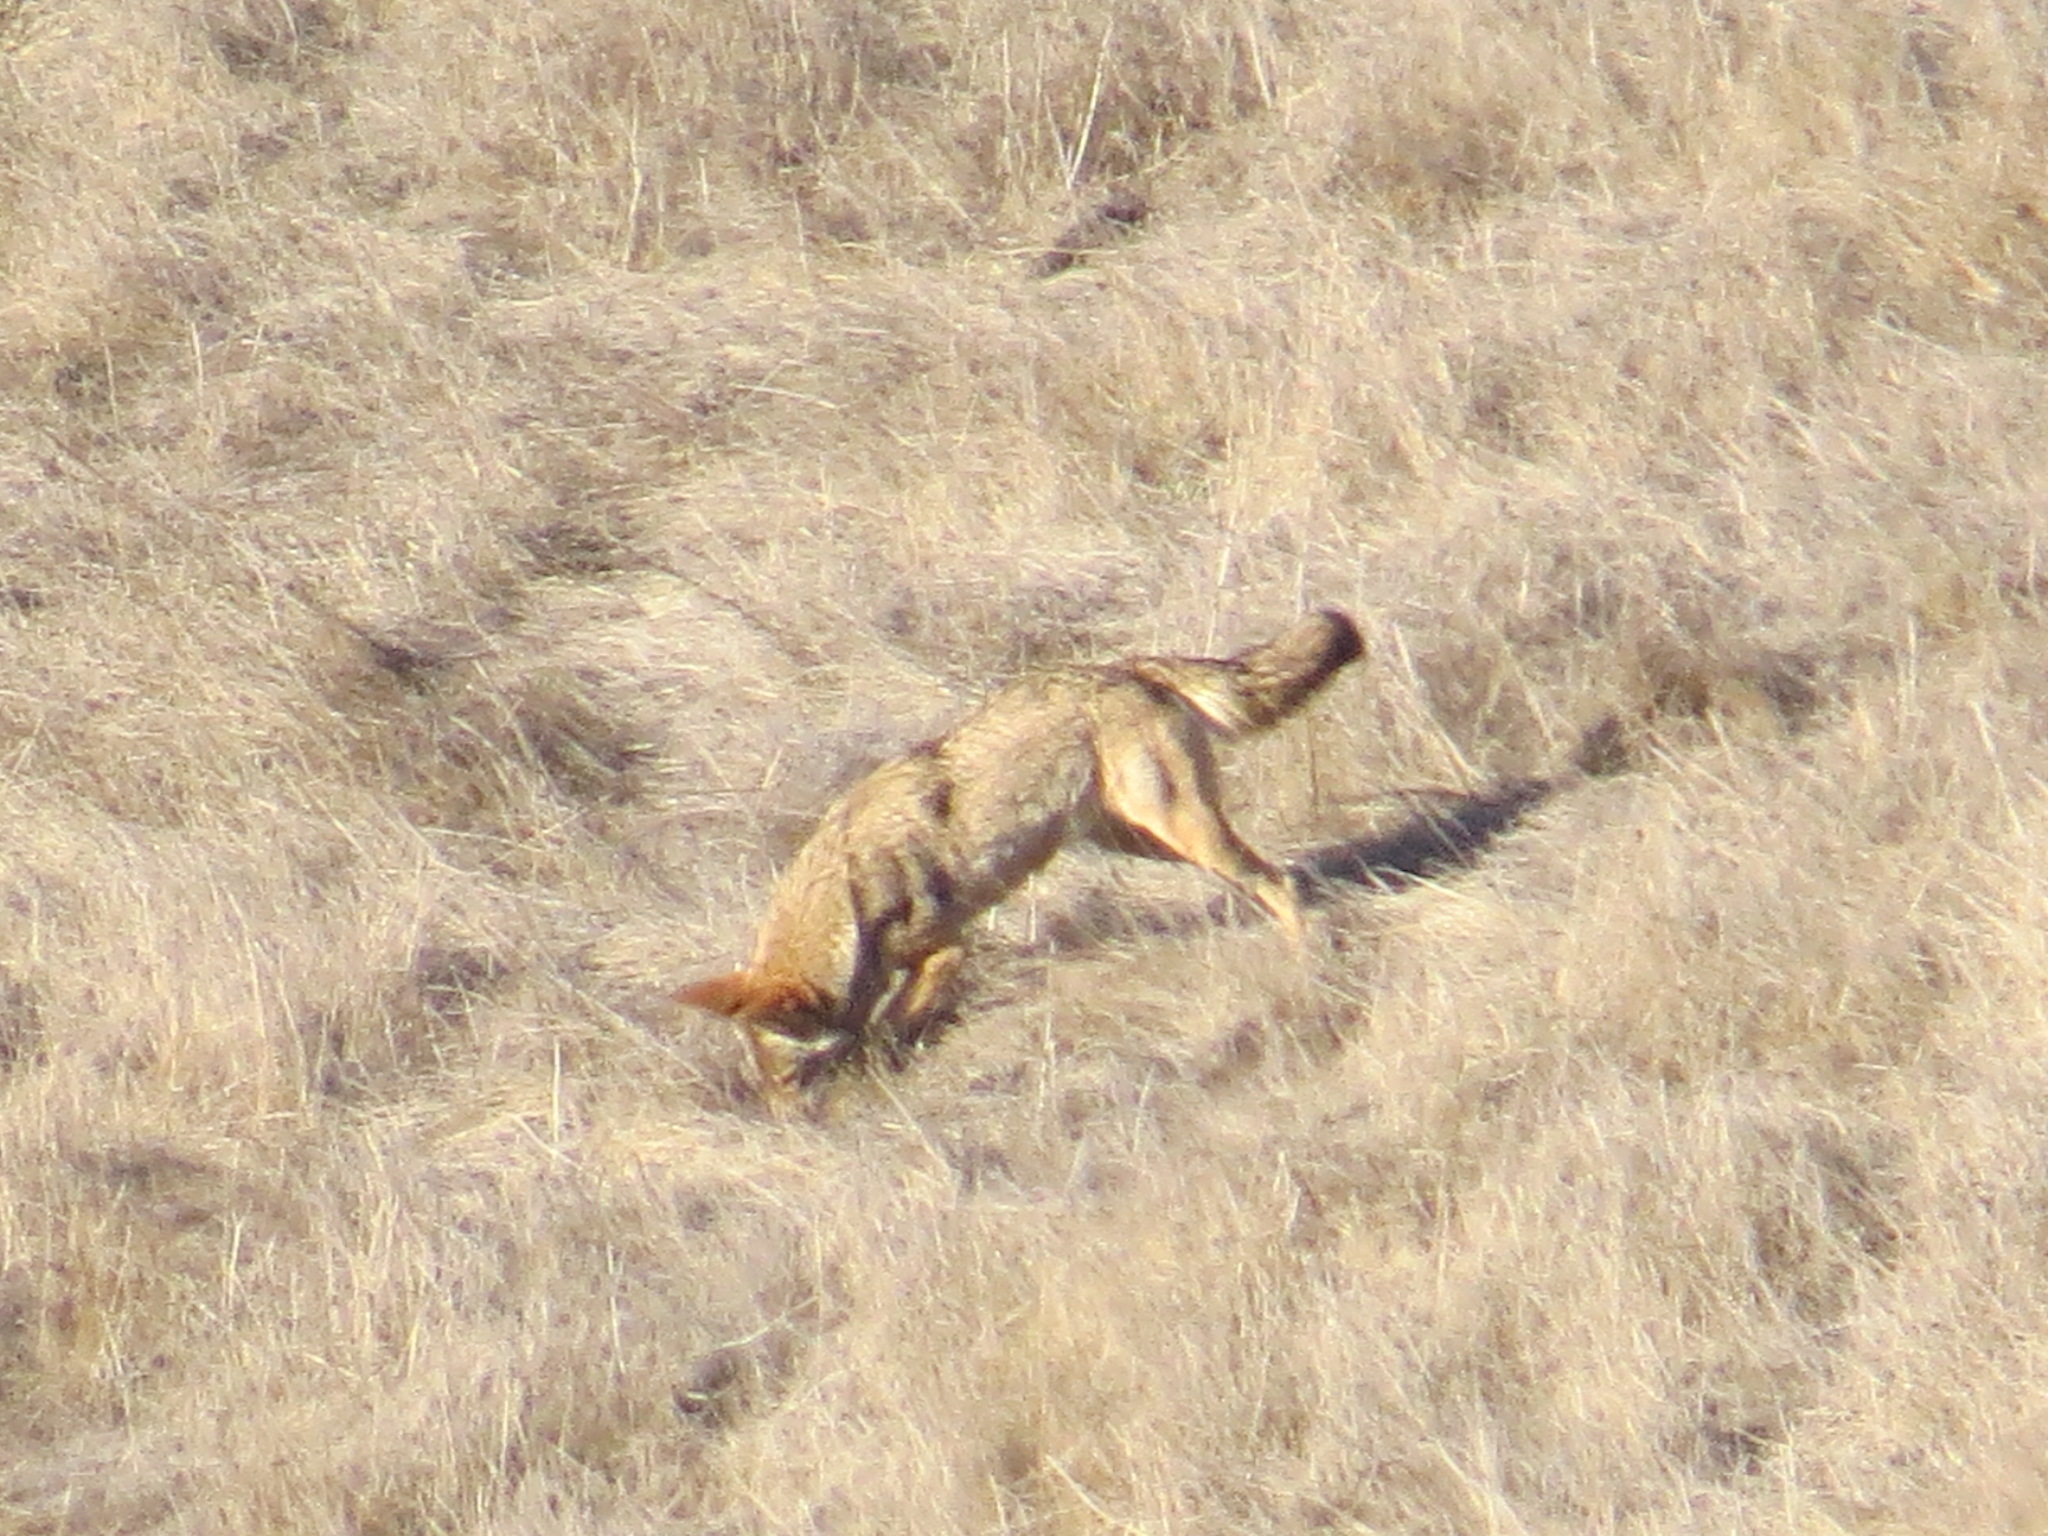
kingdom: Animalia
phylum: Chordata
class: Mammalia
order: Carnivora
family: Canidae
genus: Canis
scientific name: Canis latrans
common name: Coyote
